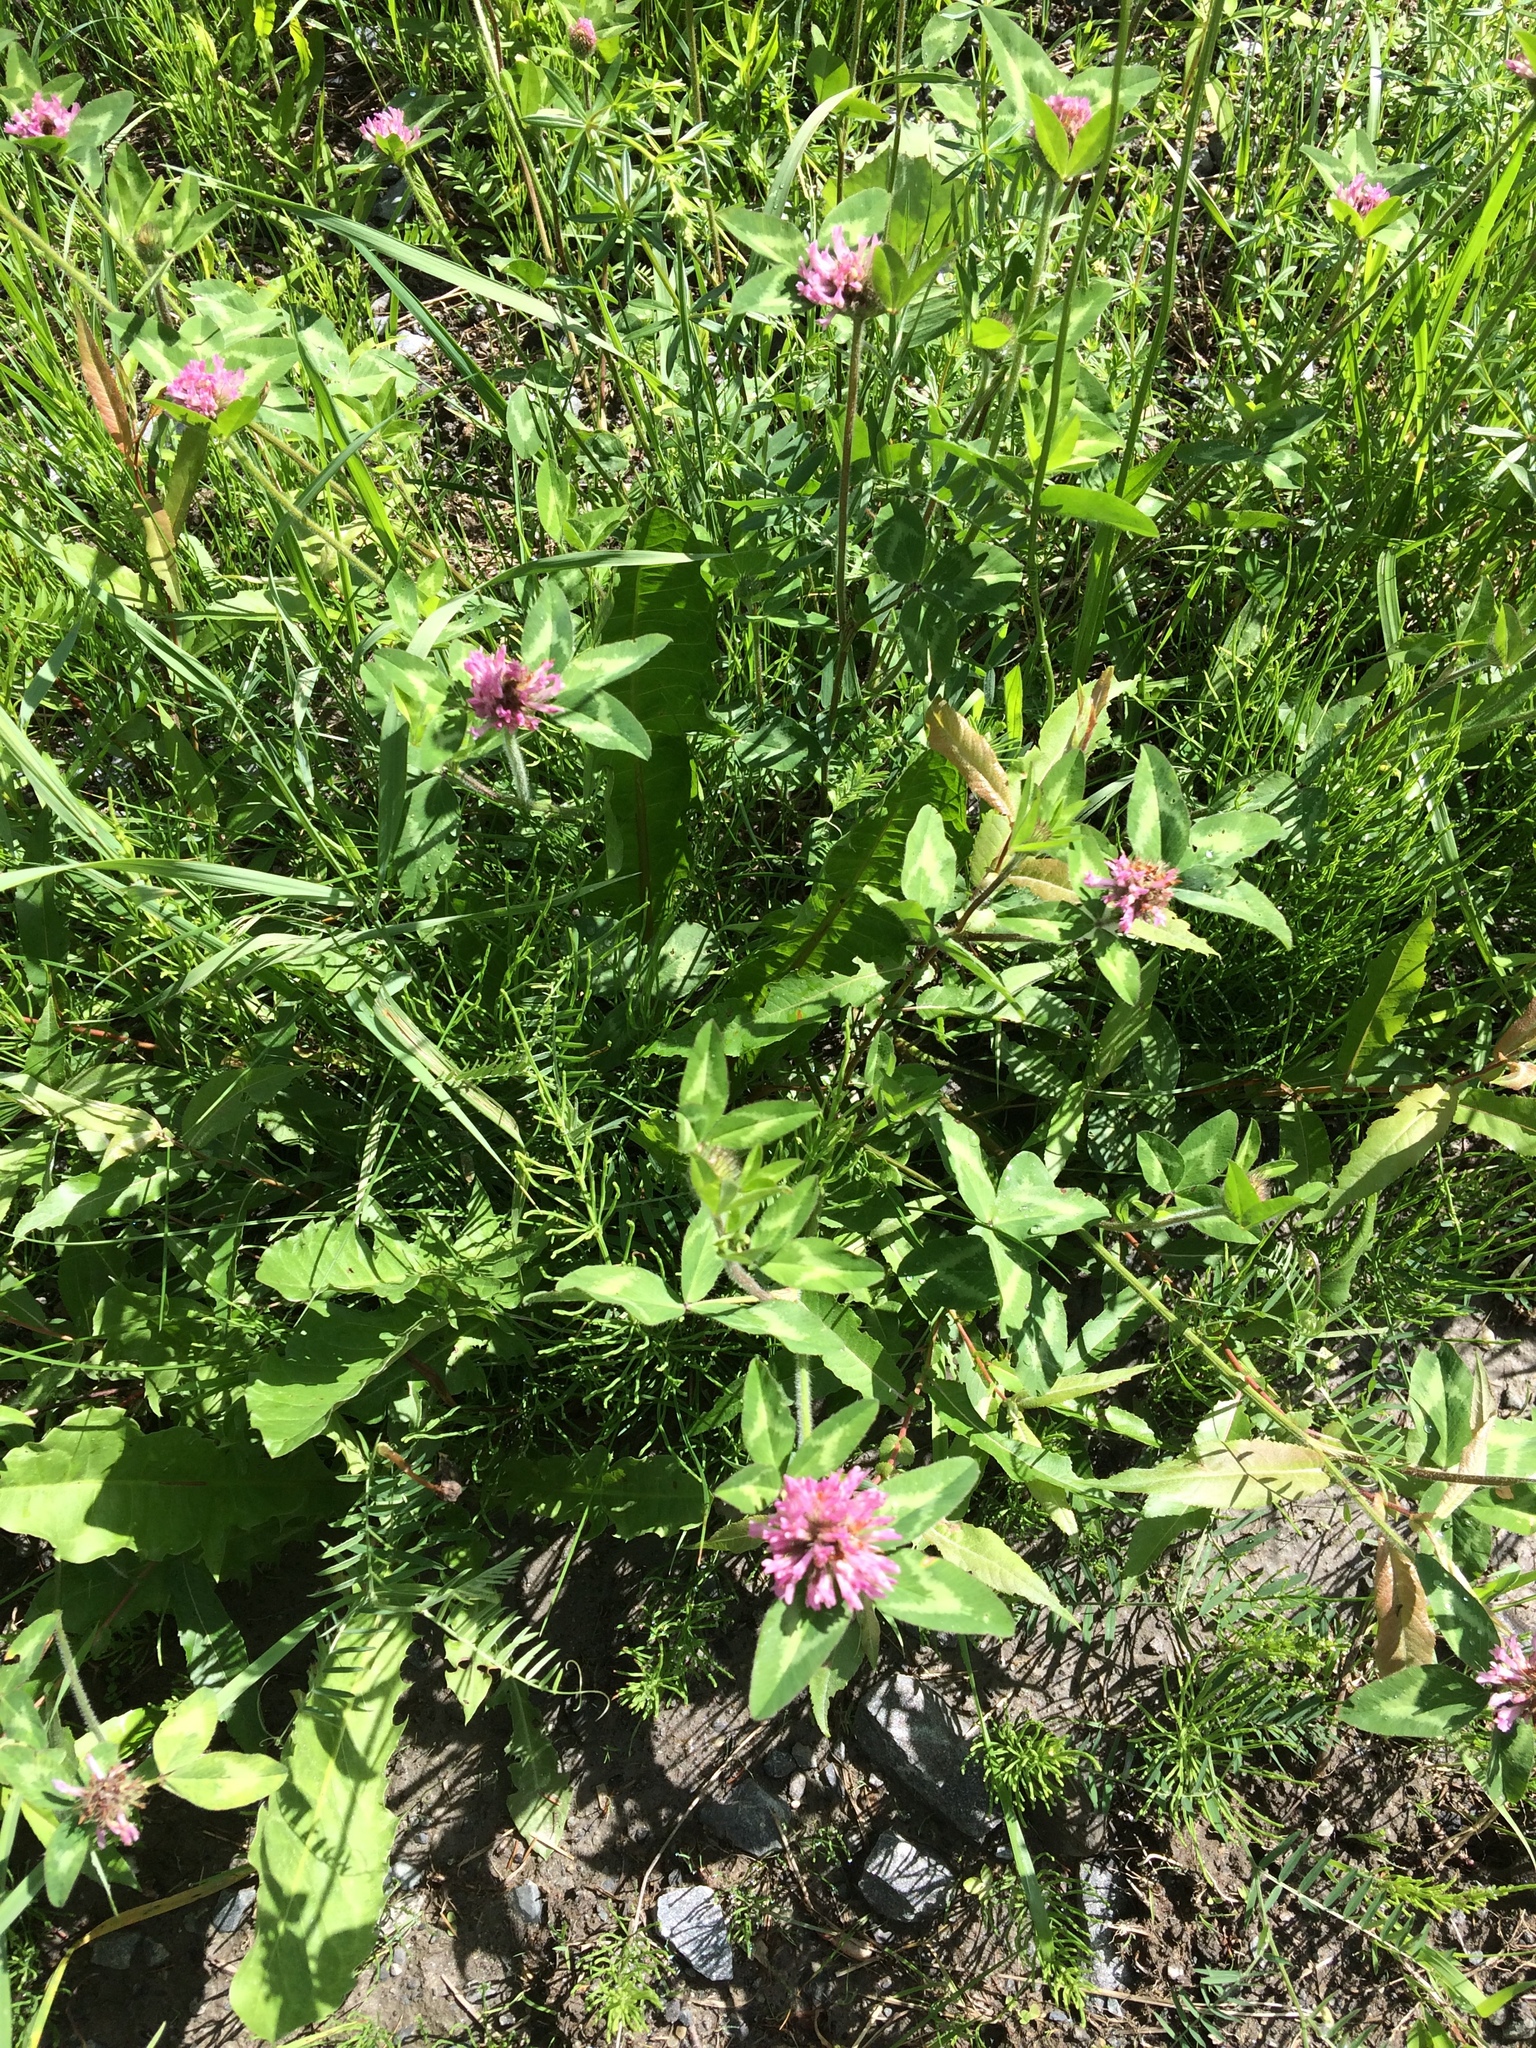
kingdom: Plantae
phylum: Tracheophyta
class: Magnoliopsida
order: Fabales
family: Fabaceae
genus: Trifolium
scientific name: Trifolium pratense
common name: Red clover
